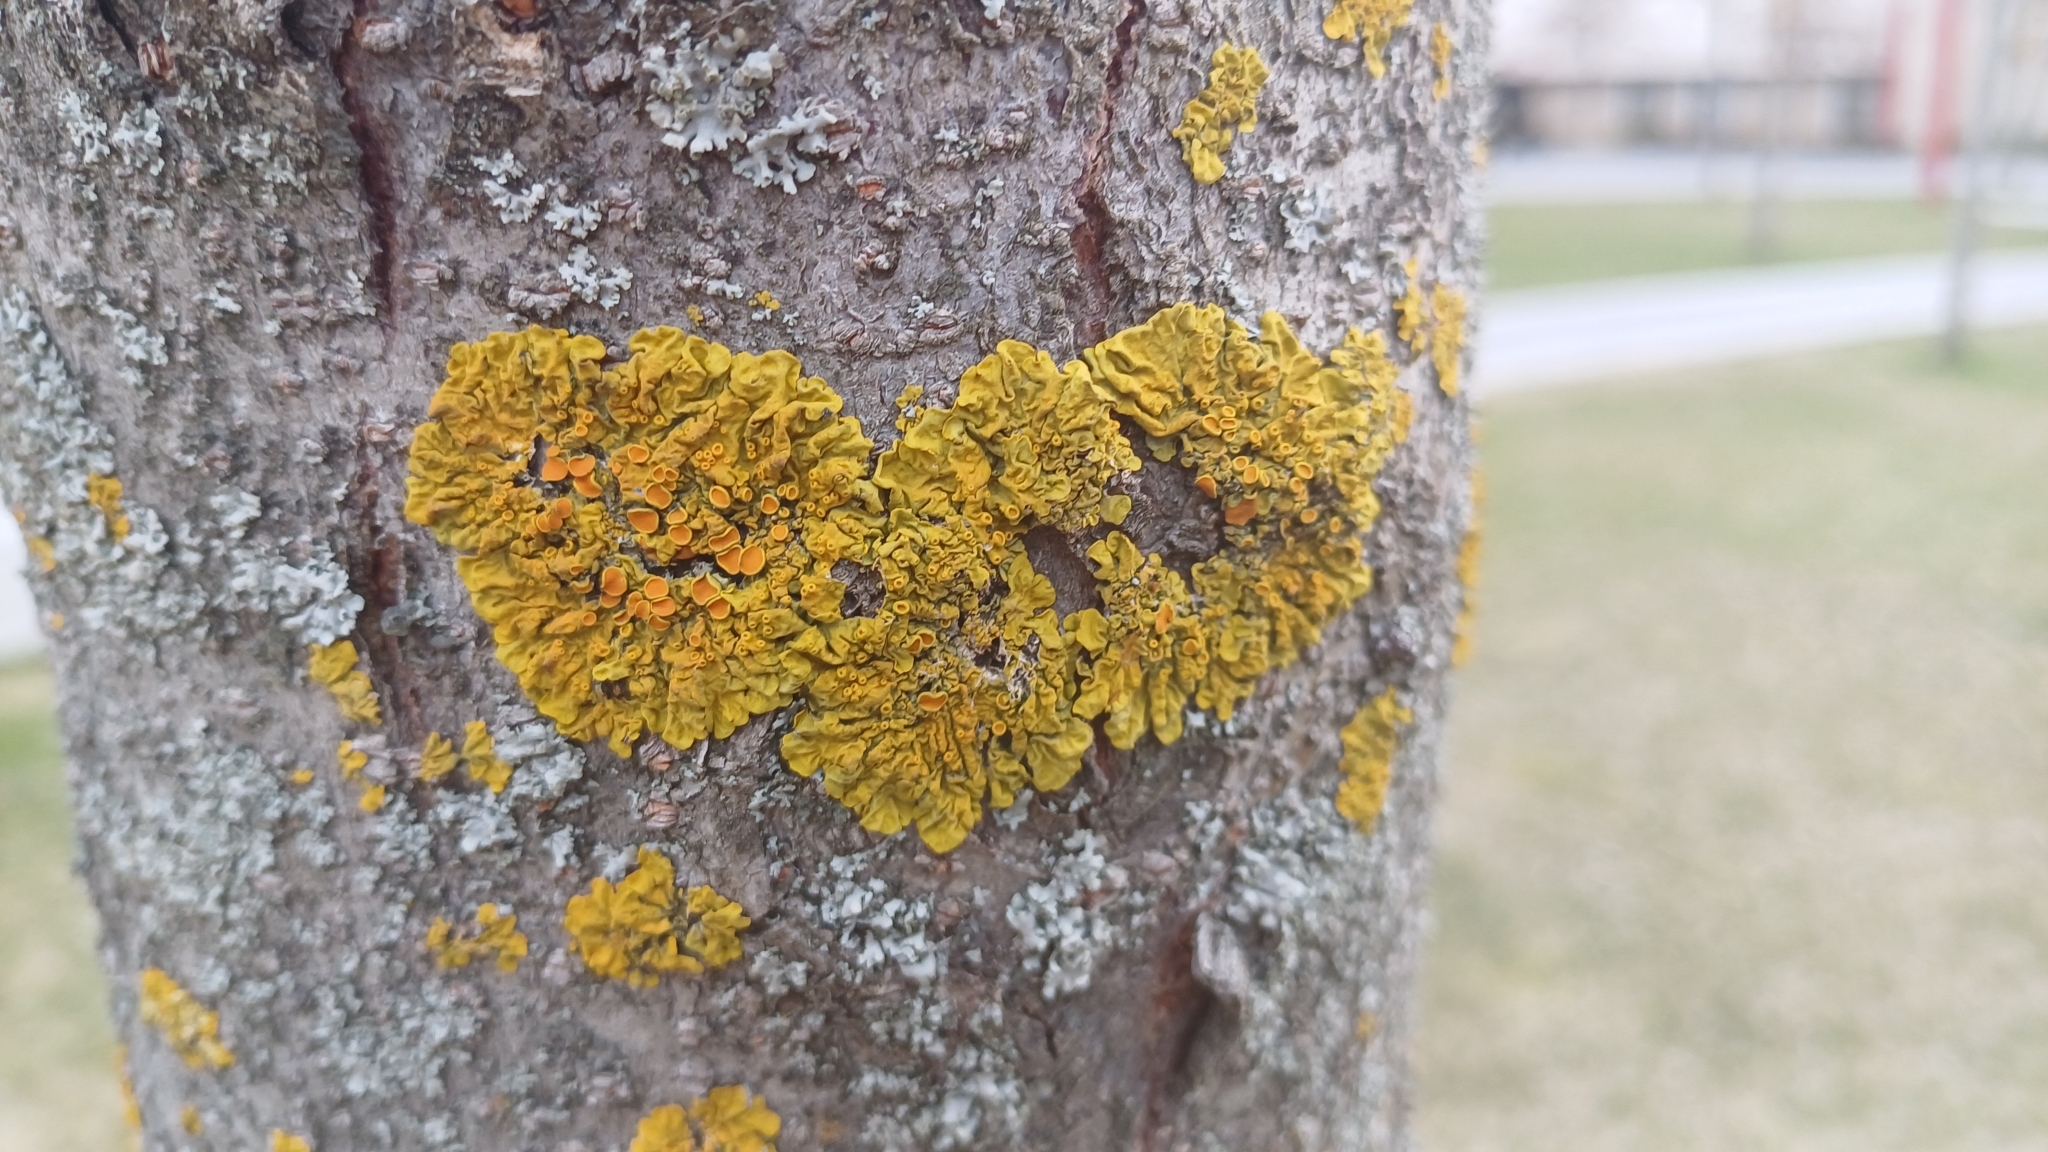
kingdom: Fungi
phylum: Ascomycota
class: Lecanoromycetes
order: Teloschistales
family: Teloschistaceae
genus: Xanthoria
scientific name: Xanthoria parietina
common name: Common orange lichen
